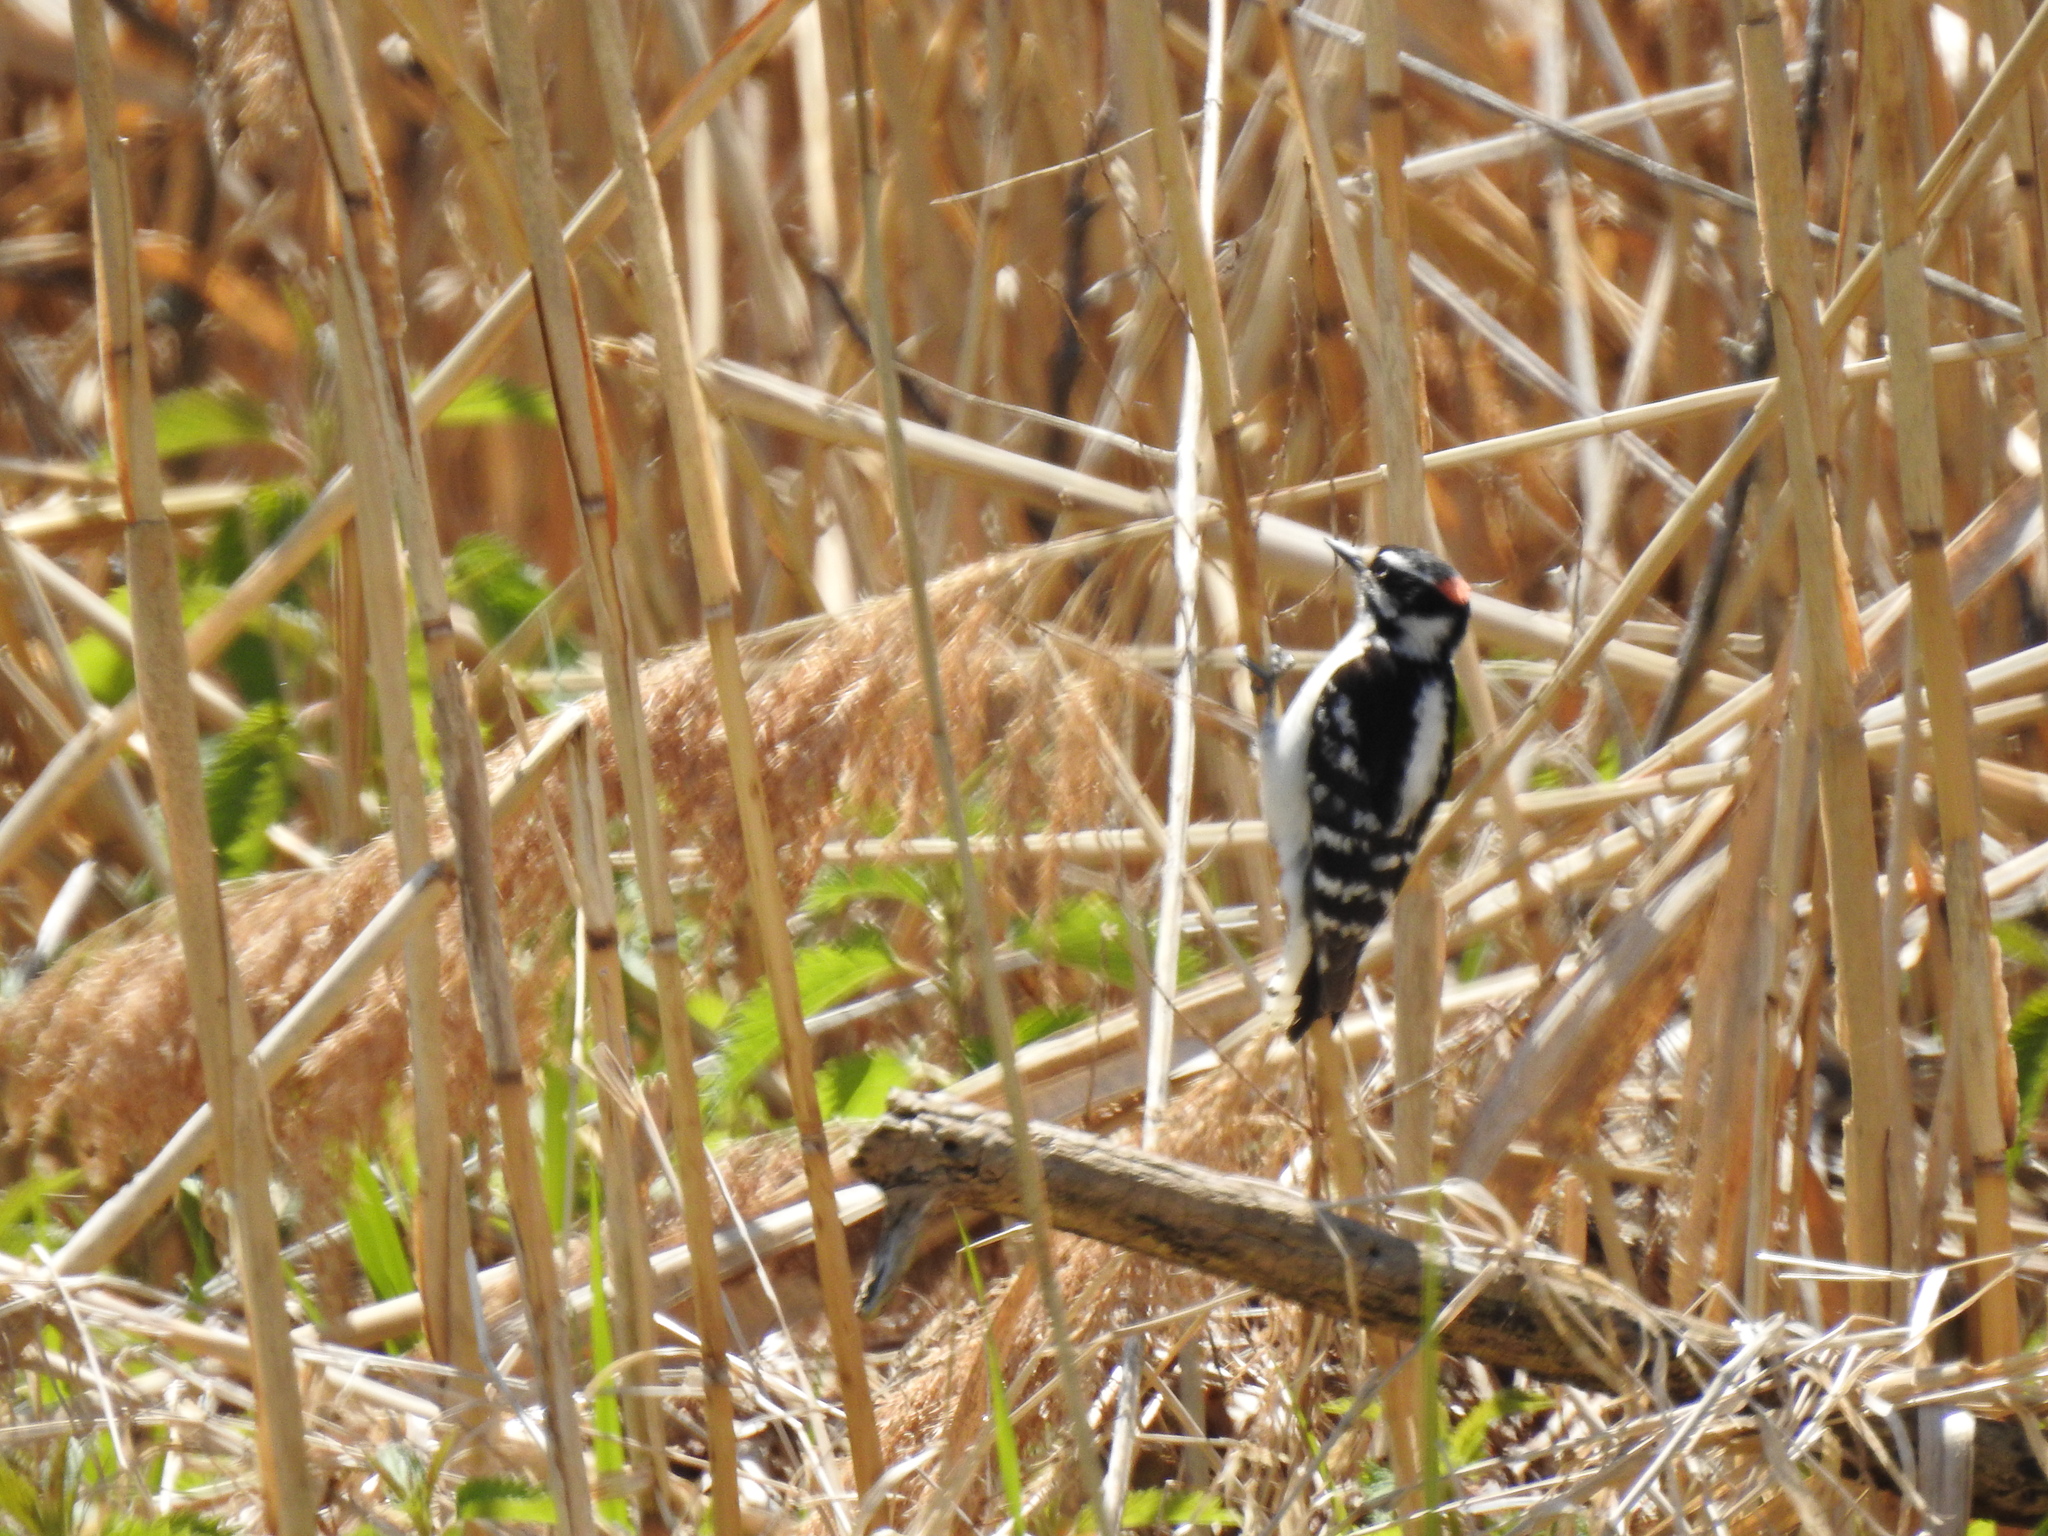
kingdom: Animalia
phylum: Chordata
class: Aves
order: Piciformes
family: Picidae
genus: Dryobates
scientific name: Dryobates pubescens
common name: Downy woodpecker
